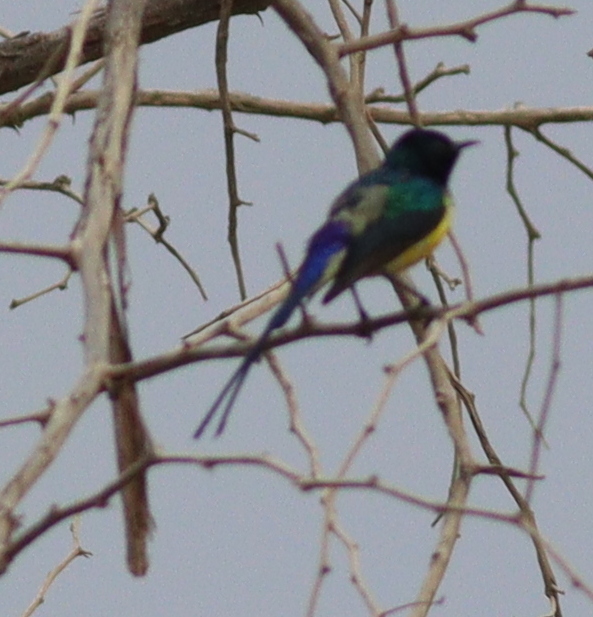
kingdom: Animalia
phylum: Chordata
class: Aves
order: Passeriformes
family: Nectariniidae
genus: Hedydipna
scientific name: Hedydipna metallica
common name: Nile valley sunbird
